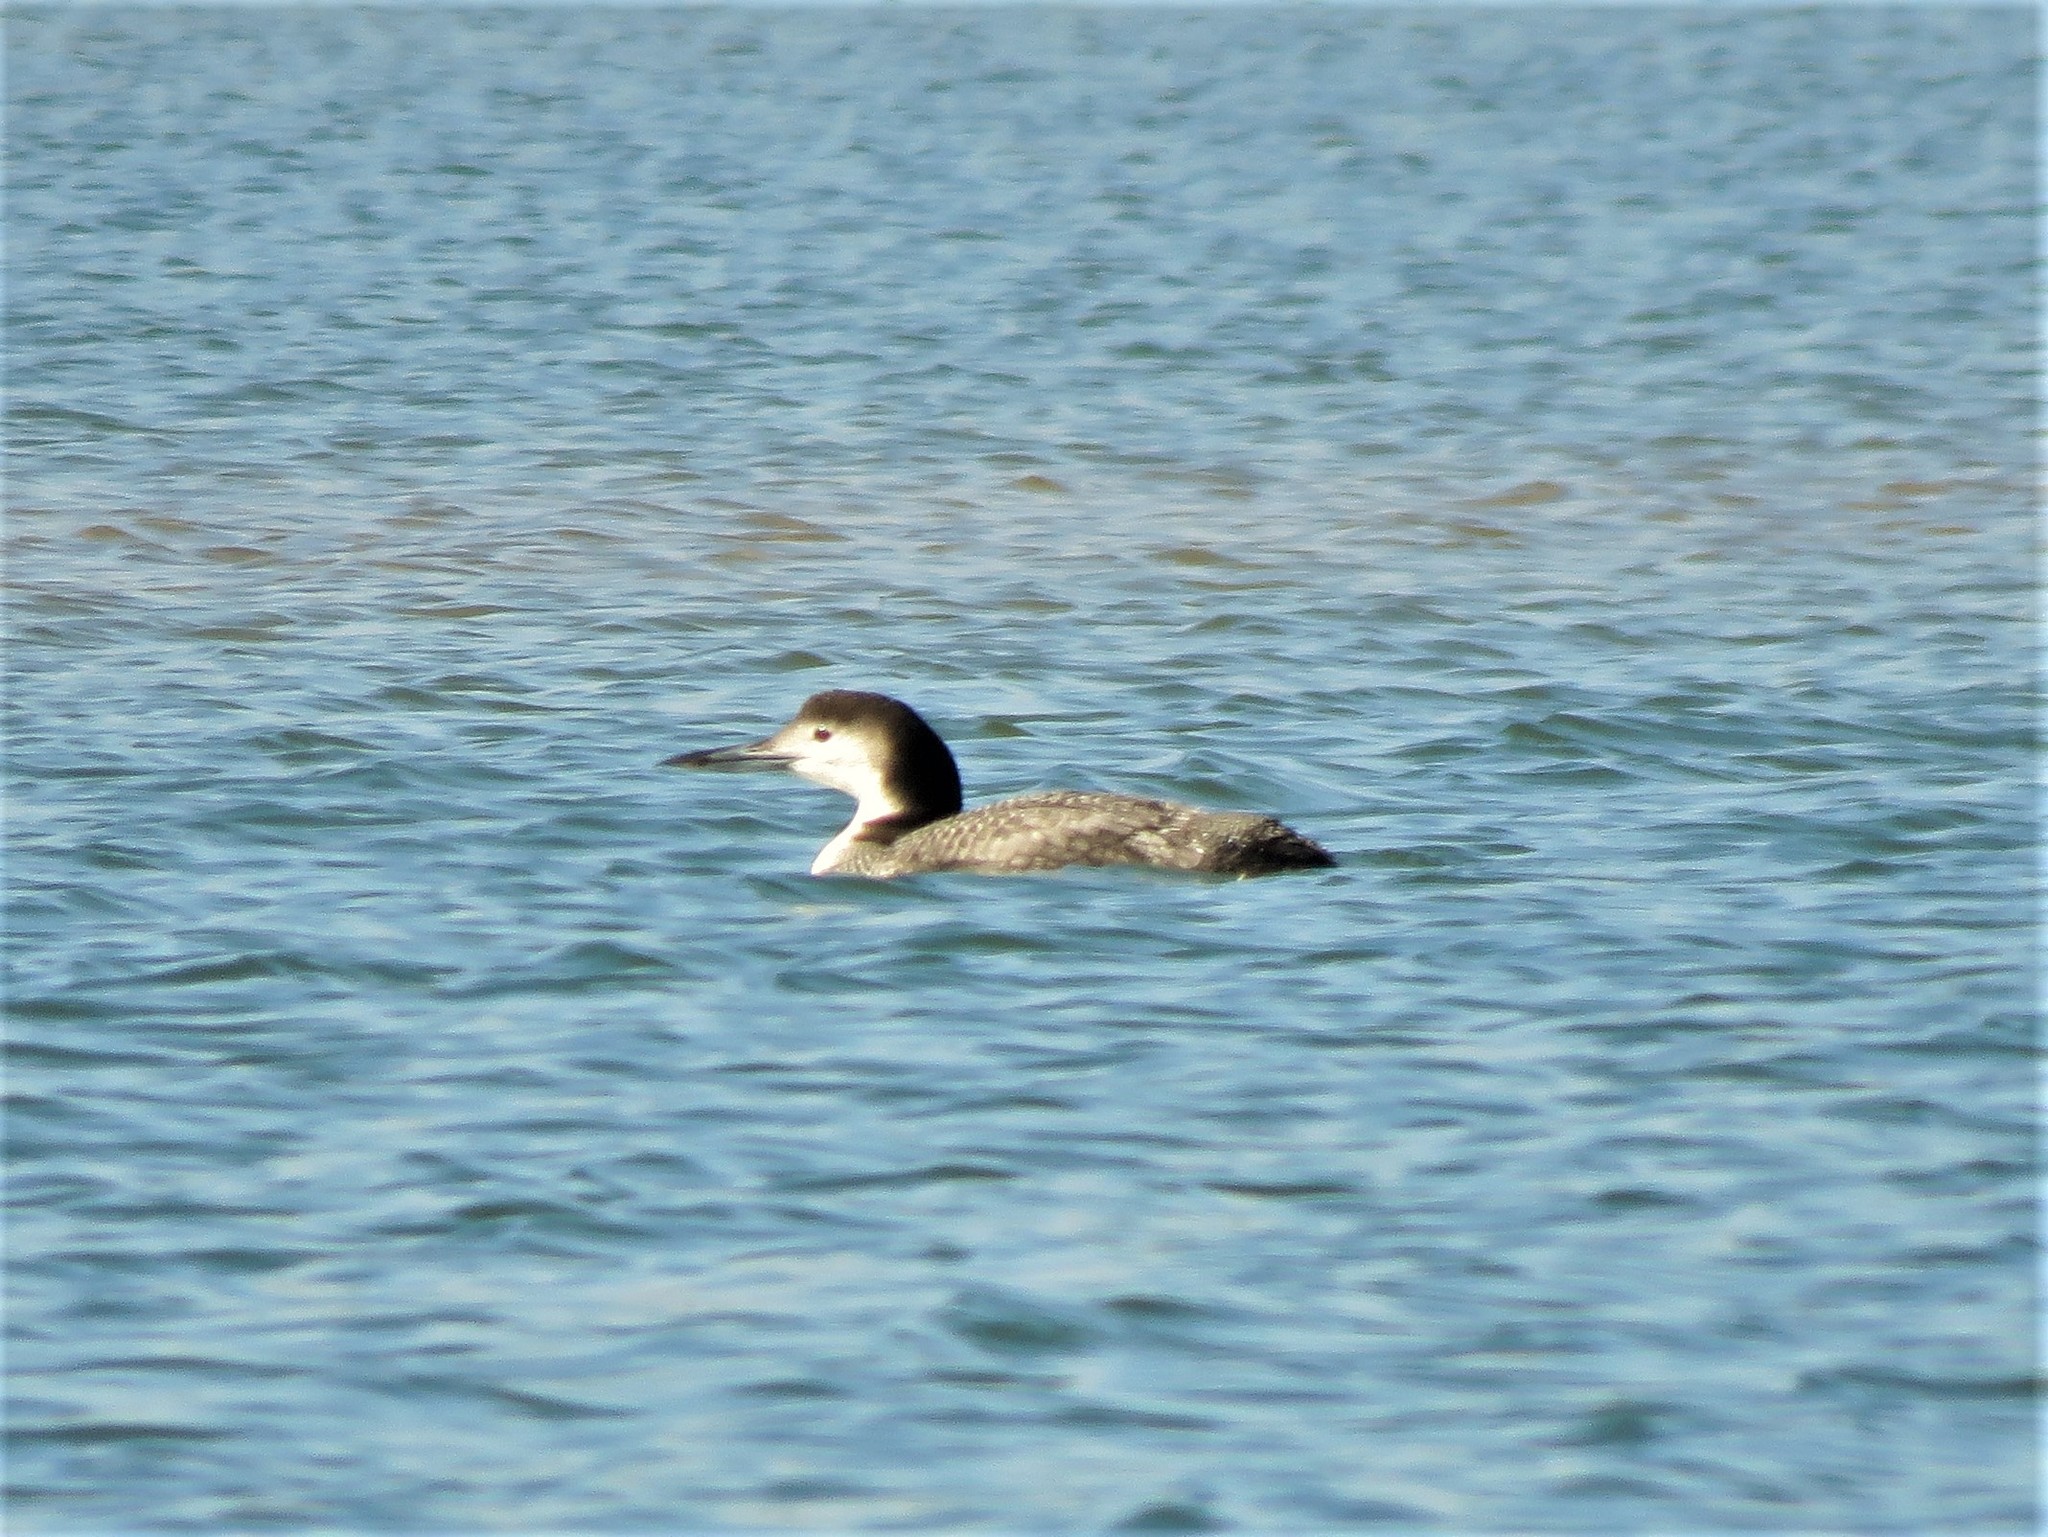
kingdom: Animalia
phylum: Chordata
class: Aves
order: Gaviiformes
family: Gaviidae
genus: Gavia
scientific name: Gavia immer
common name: Common loon
